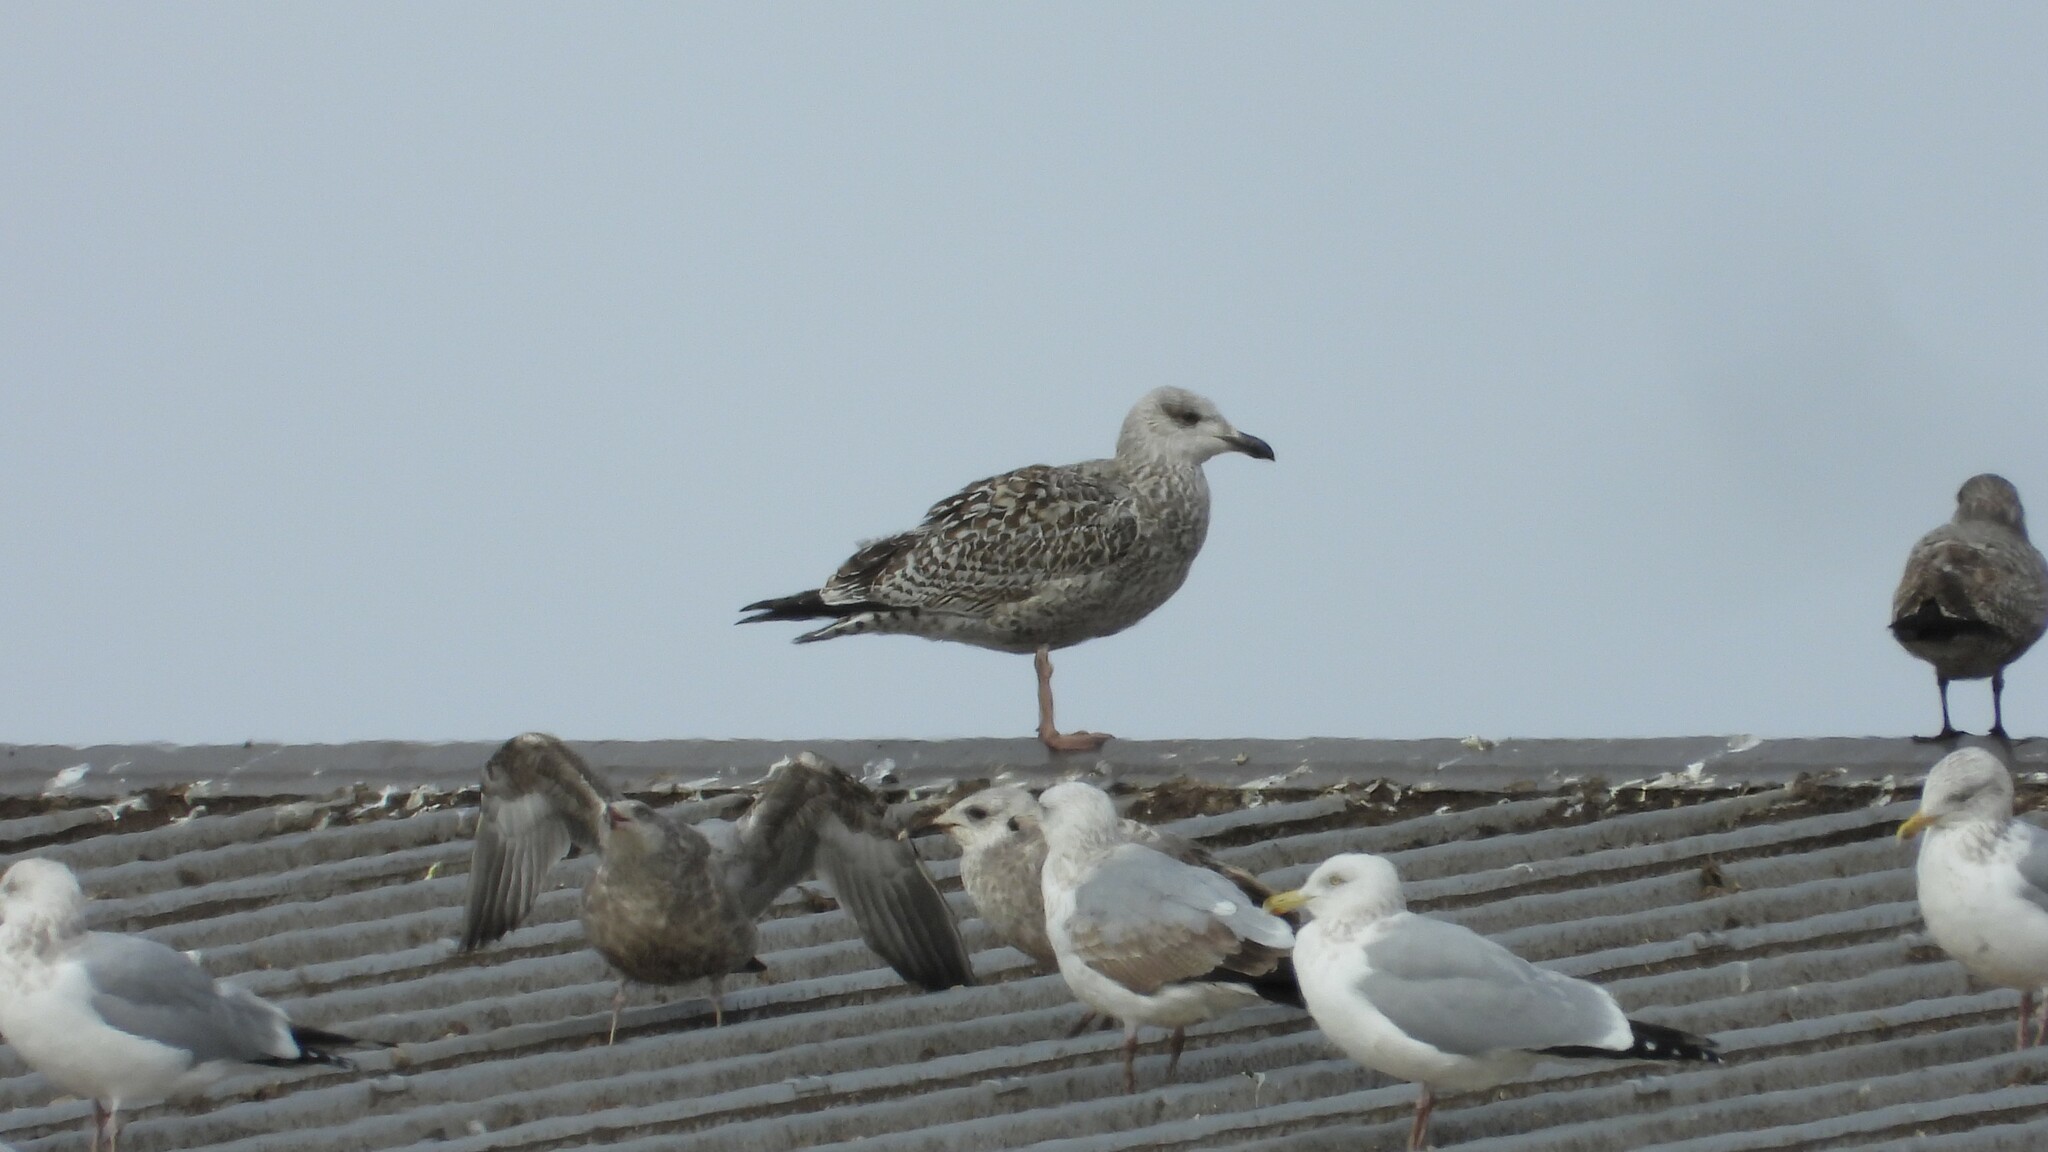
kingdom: Animalia
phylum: Chordata
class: Aves
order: Charadriiformes
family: Laridae
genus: Larus
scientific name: Larus marinus
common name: Great black-backed gull
